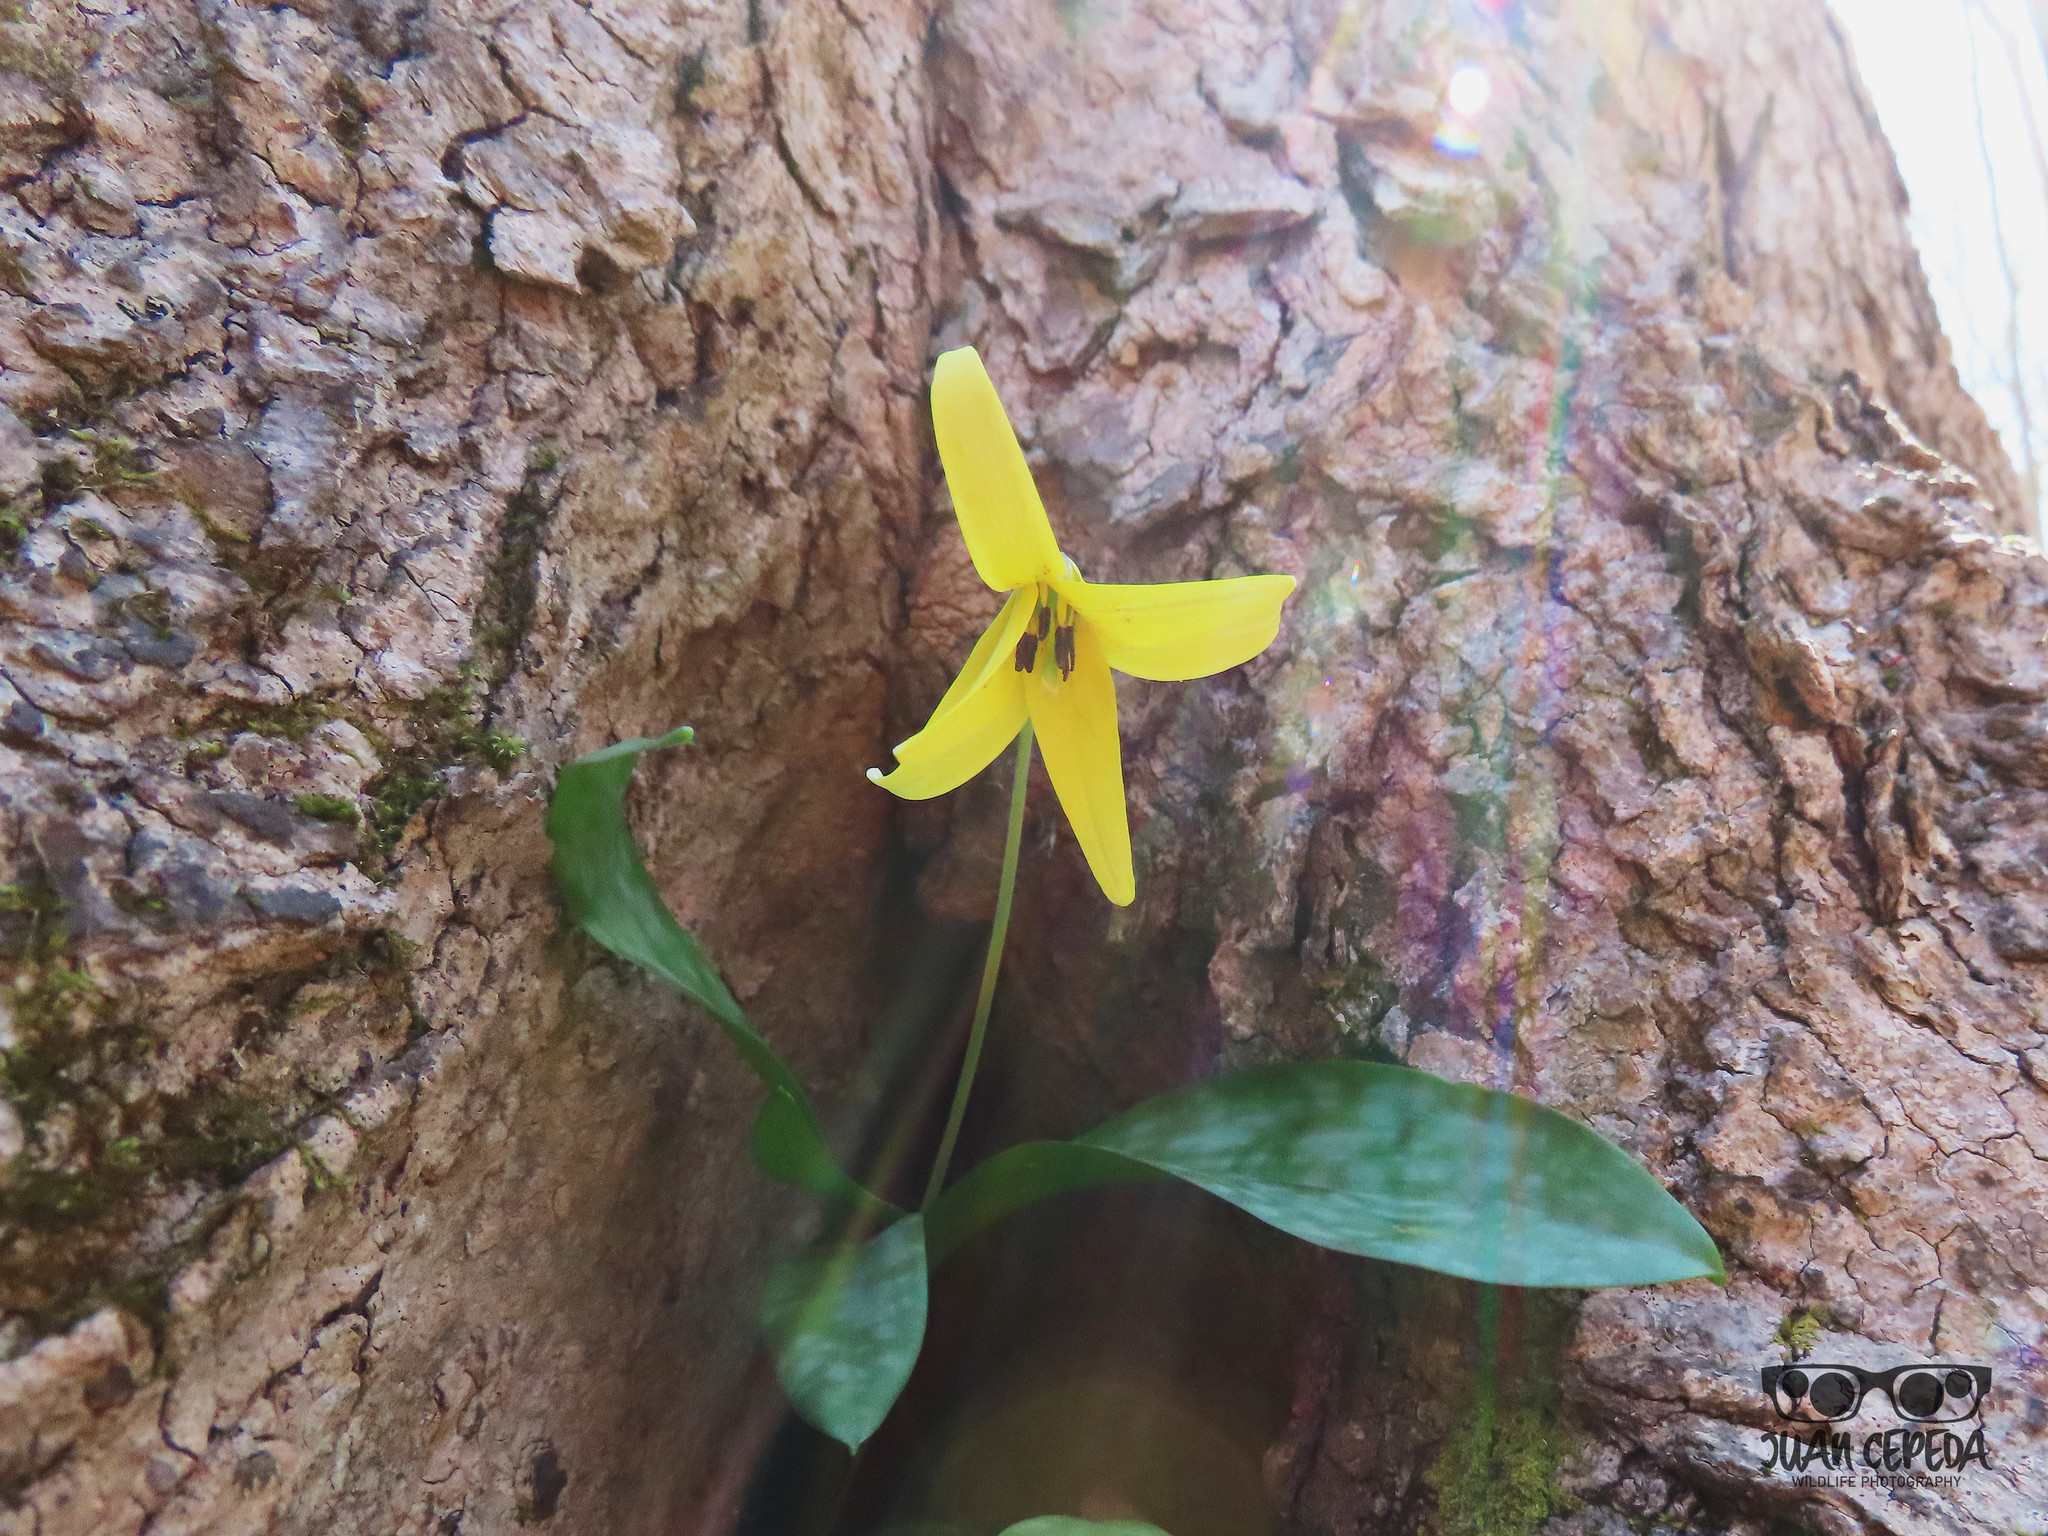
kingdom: Plantae
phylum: Tracheophyta
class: Liliopsida
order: Liliales
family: Liliaceae
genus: Erythronium
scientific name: Erythronium americanum
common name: Yellow adder's-tongue
